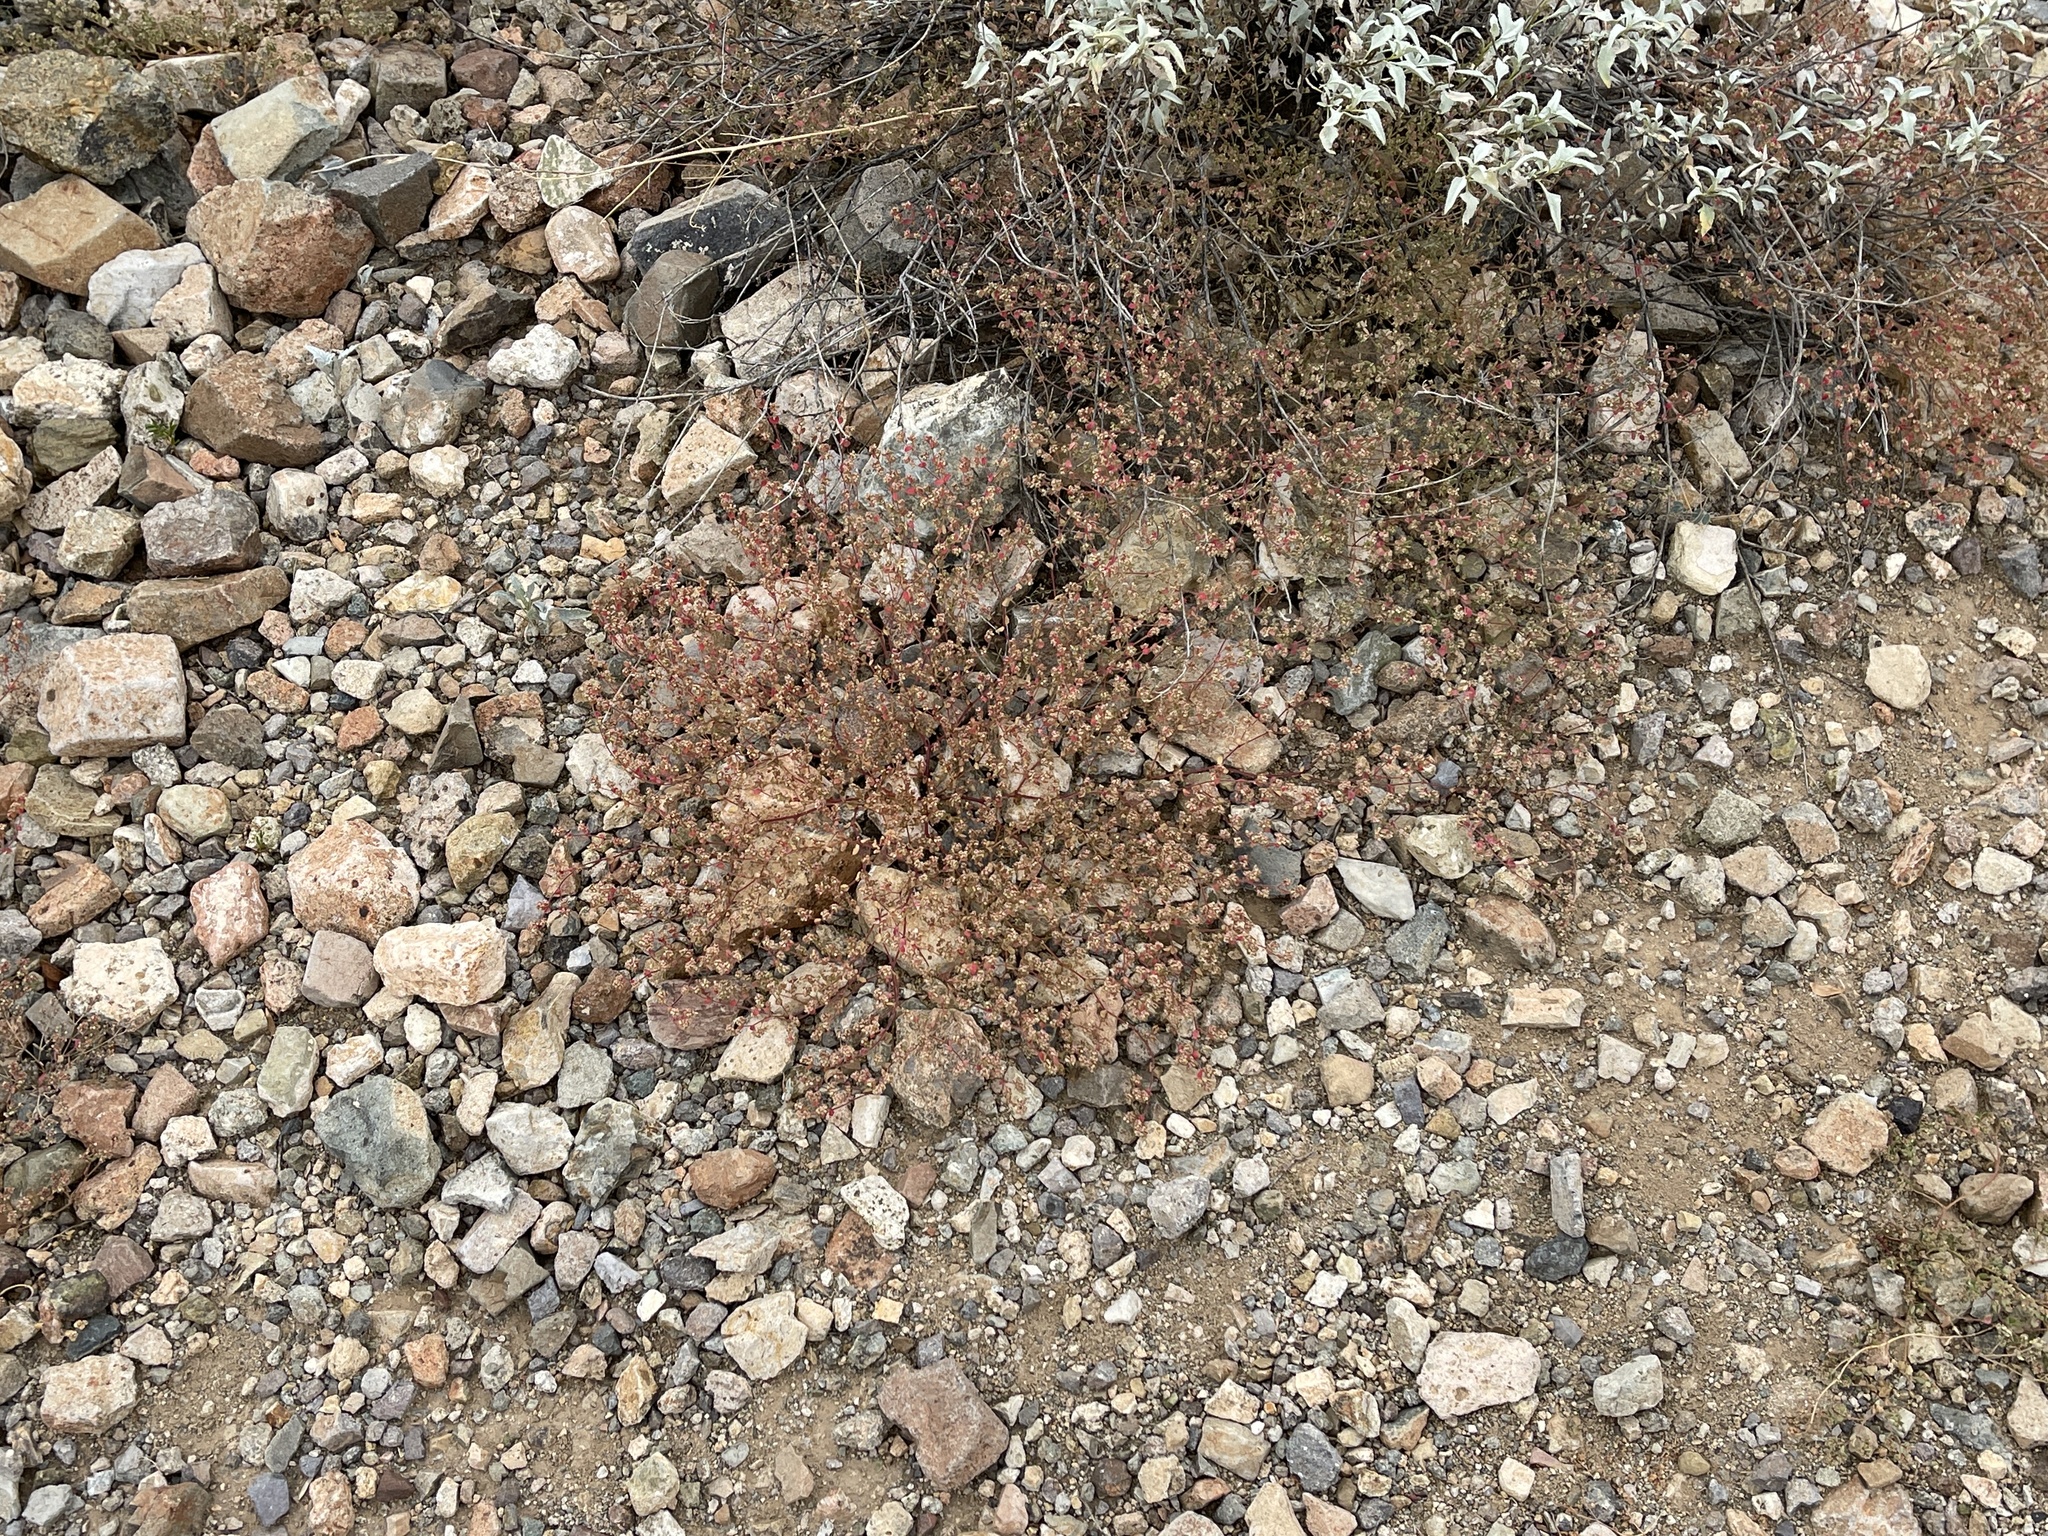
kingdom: Plantae
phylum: Tracheophyta
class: Magnoliopsida
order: Malpighiales
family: Euphorbiaceae
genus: Euphorbia
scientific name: Euphorbia setiloba
